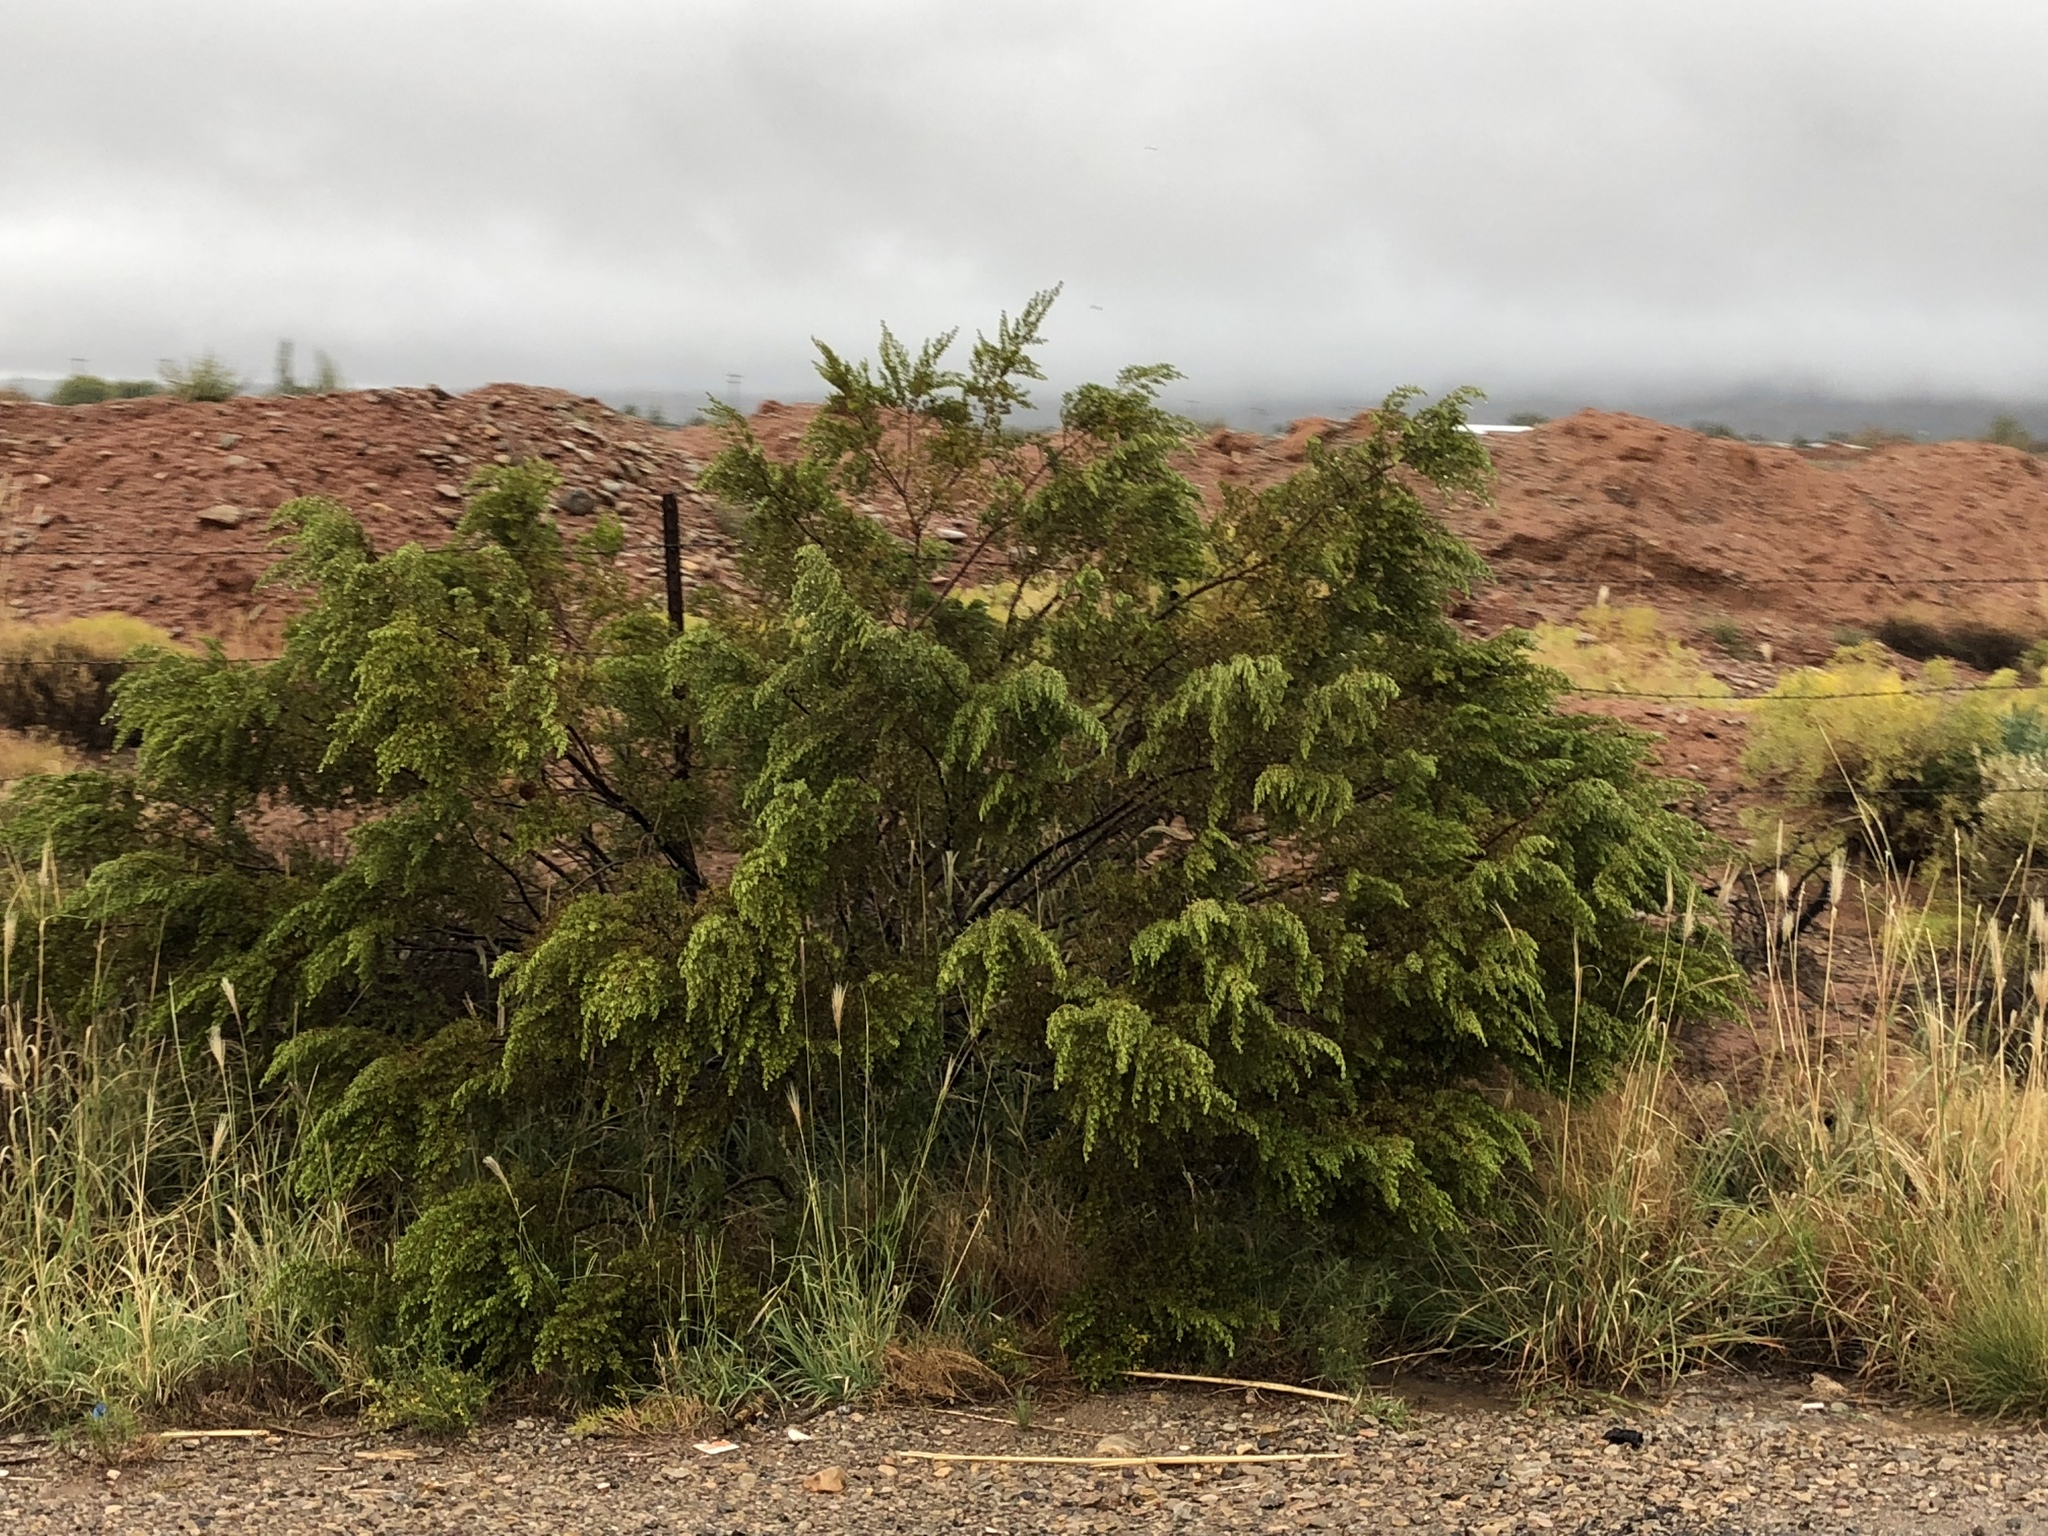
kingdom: Plantae
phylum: Tracheophyta
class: Magnoliopsida
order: Zygophyllales
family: Zygophyllaceae
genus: Larrea
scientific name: Larrea tridentata
